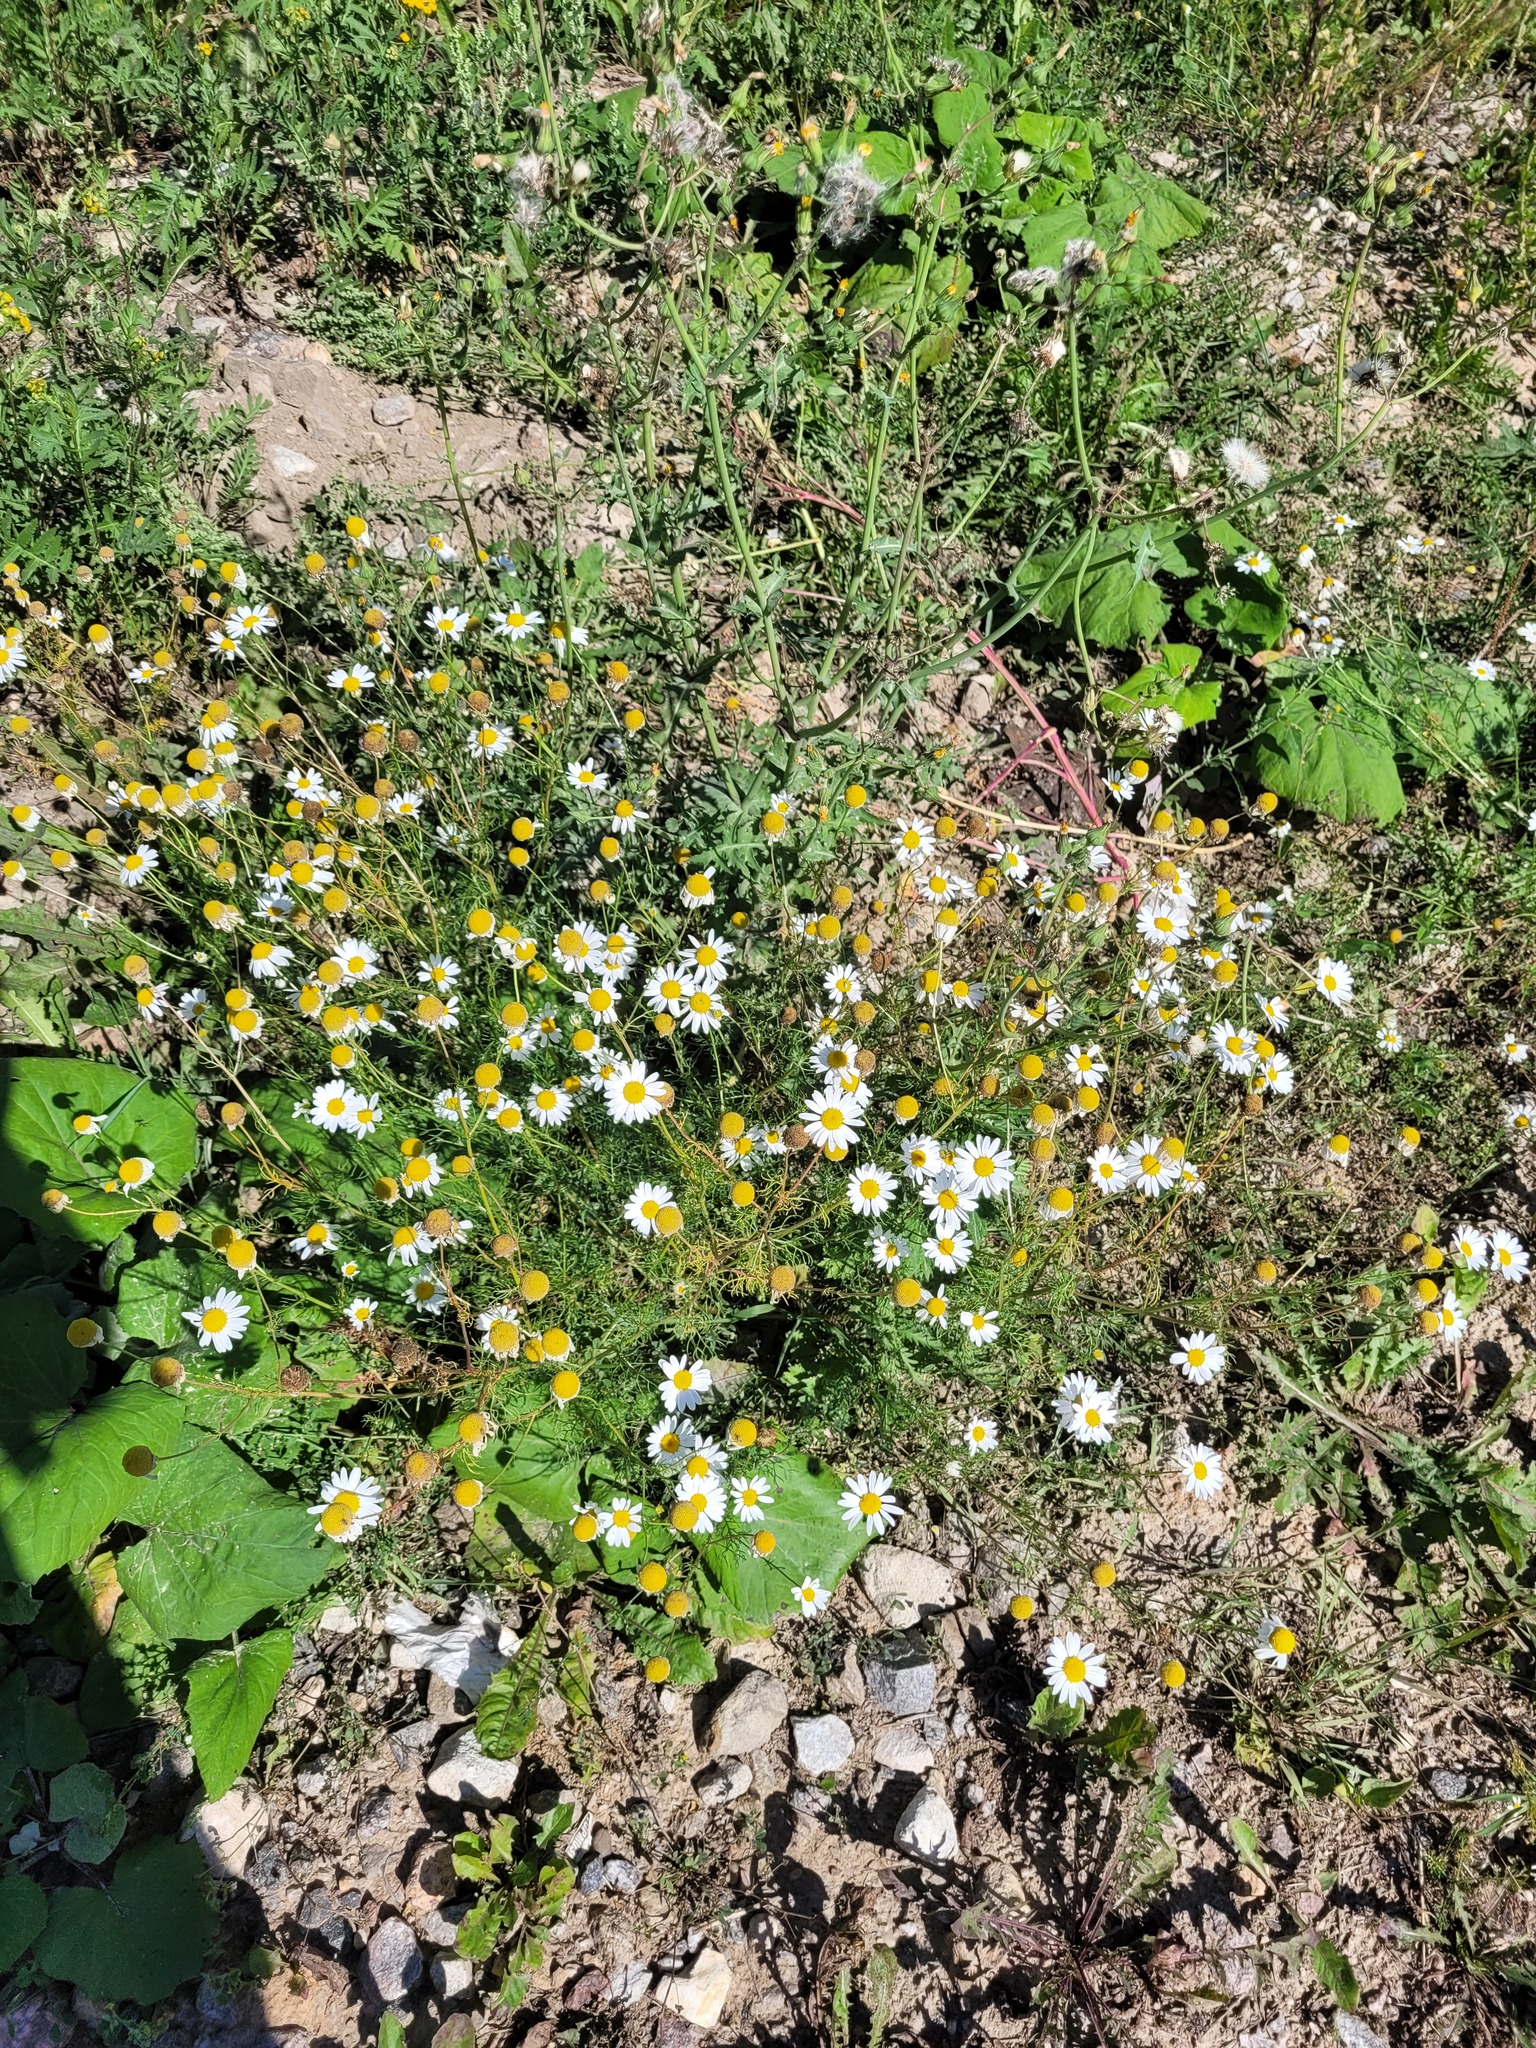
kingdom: Plantae
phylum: Tracheophyta
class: Magnoliopsida
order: Asterales
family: Asteraceae
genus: Tripleurospermum
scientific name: Tripleurospermum inodorum
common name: Scentless mayweed
